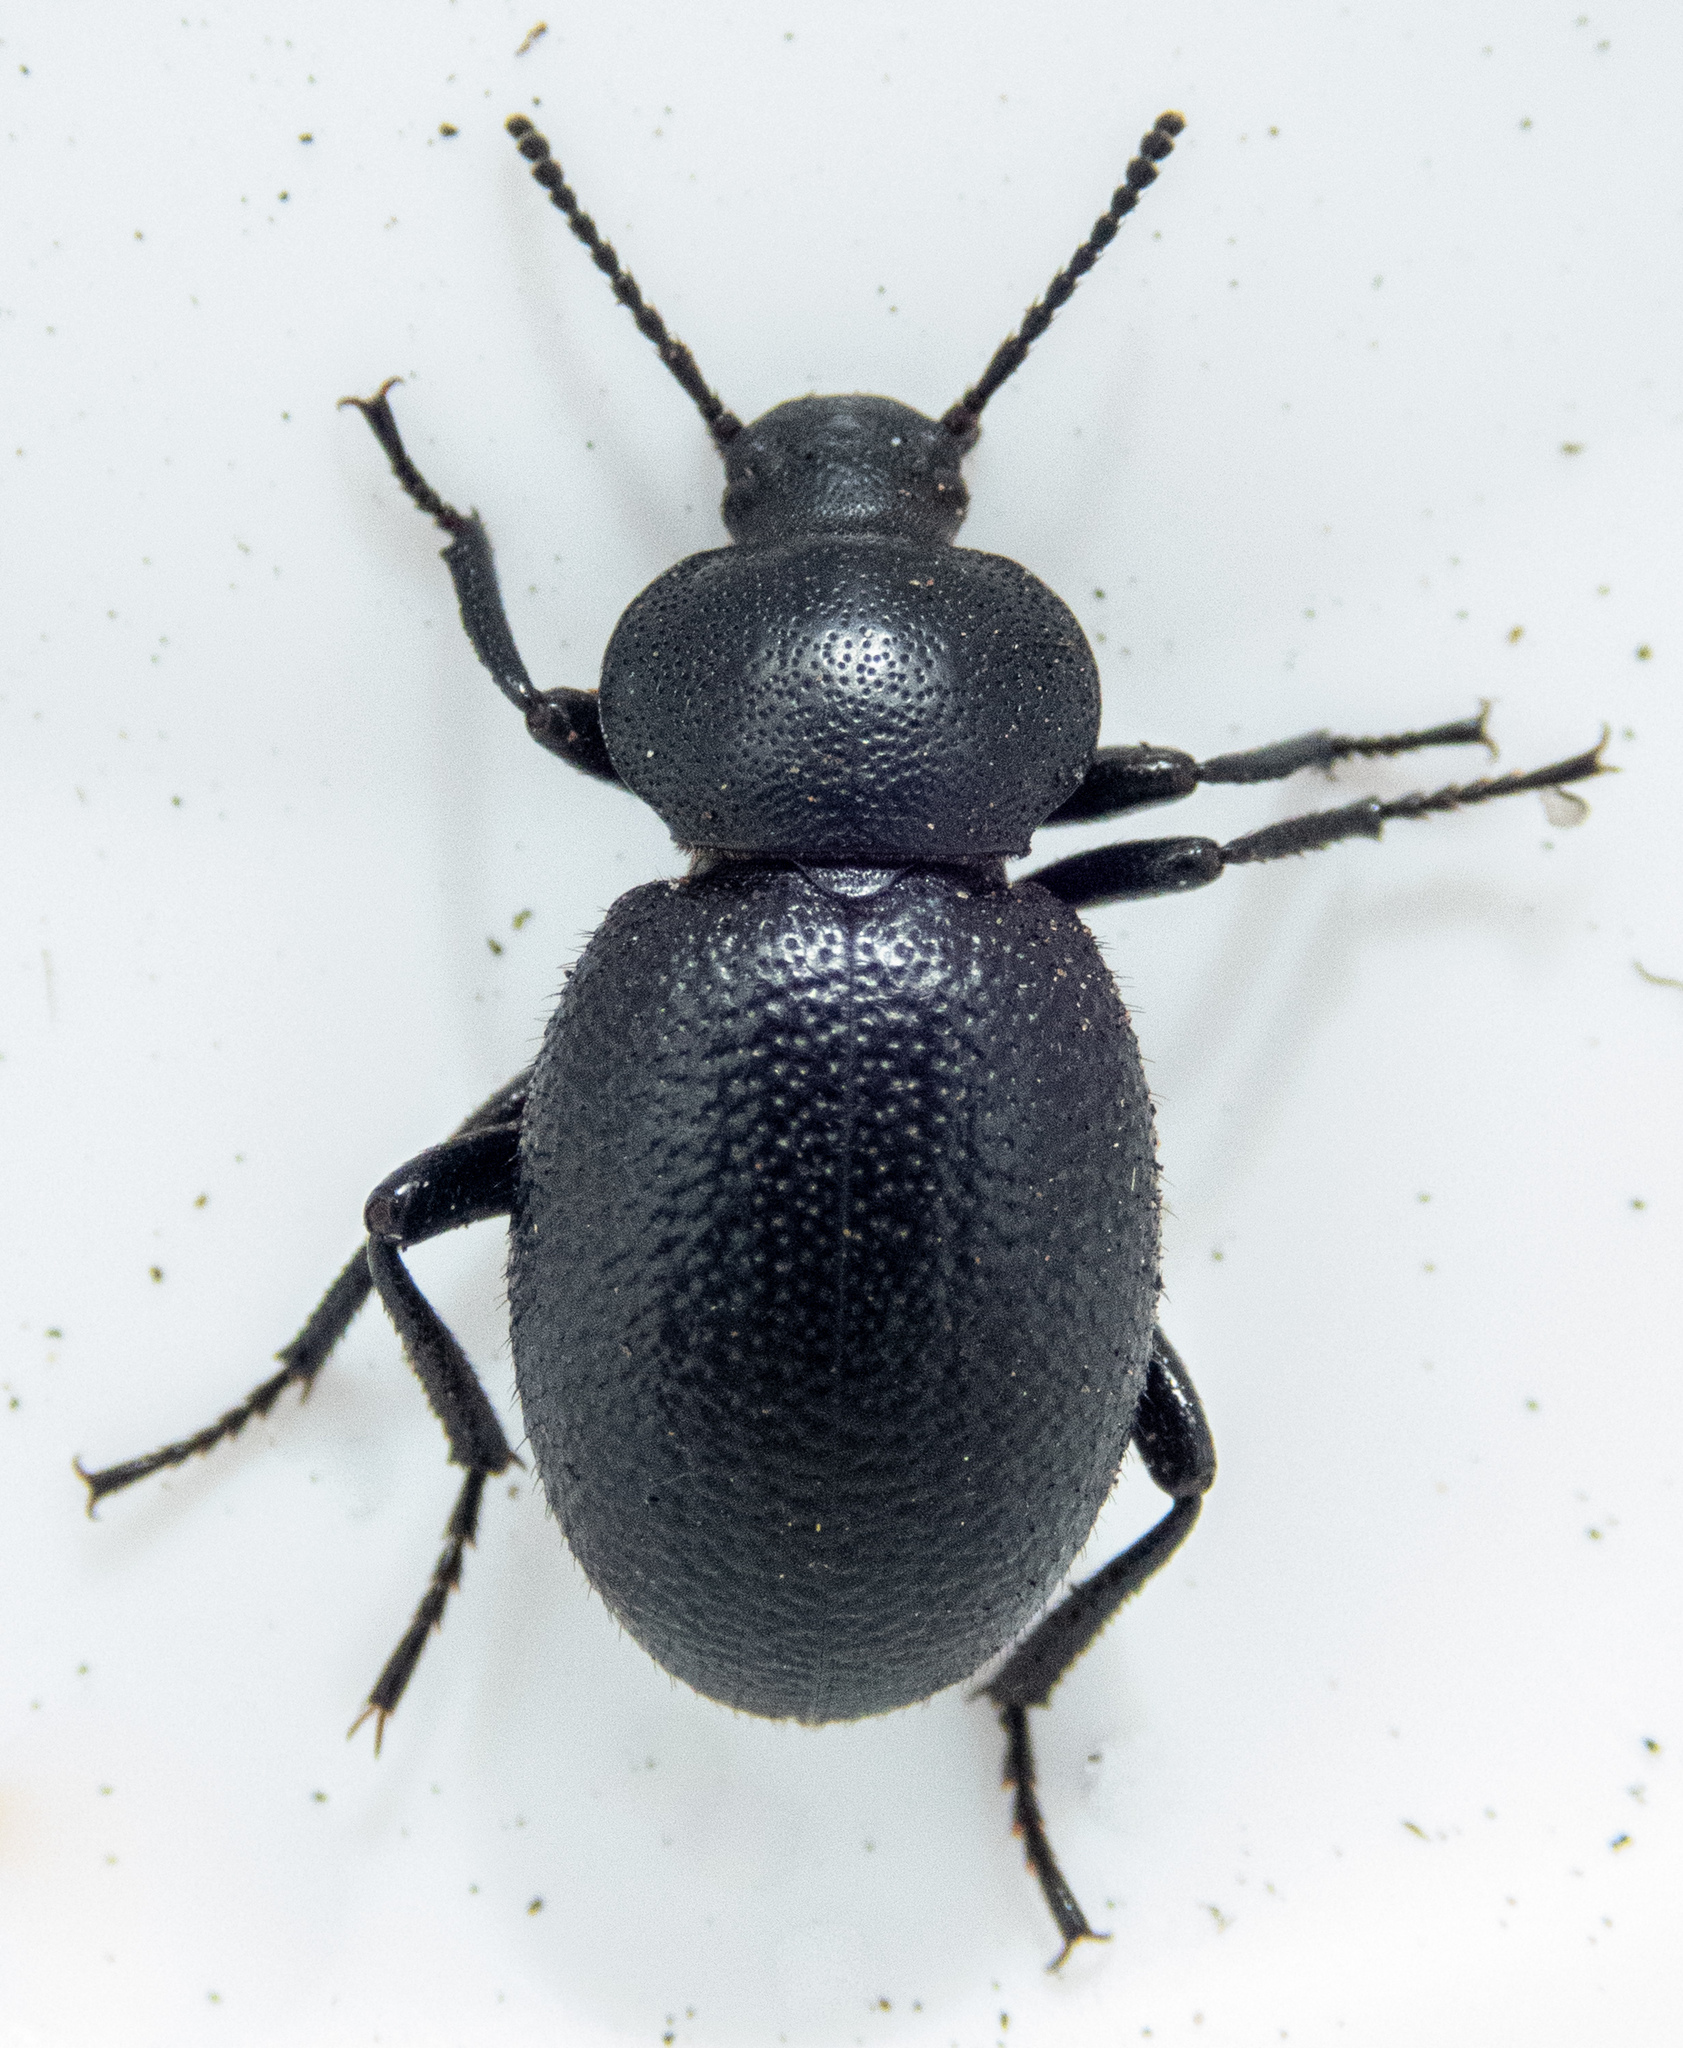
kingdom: Animalia
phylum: Arthropoda
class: Insecta
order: Coleoptera
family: Tenebrionidae
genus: Eleodes
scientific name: Eleodes scabrosa
